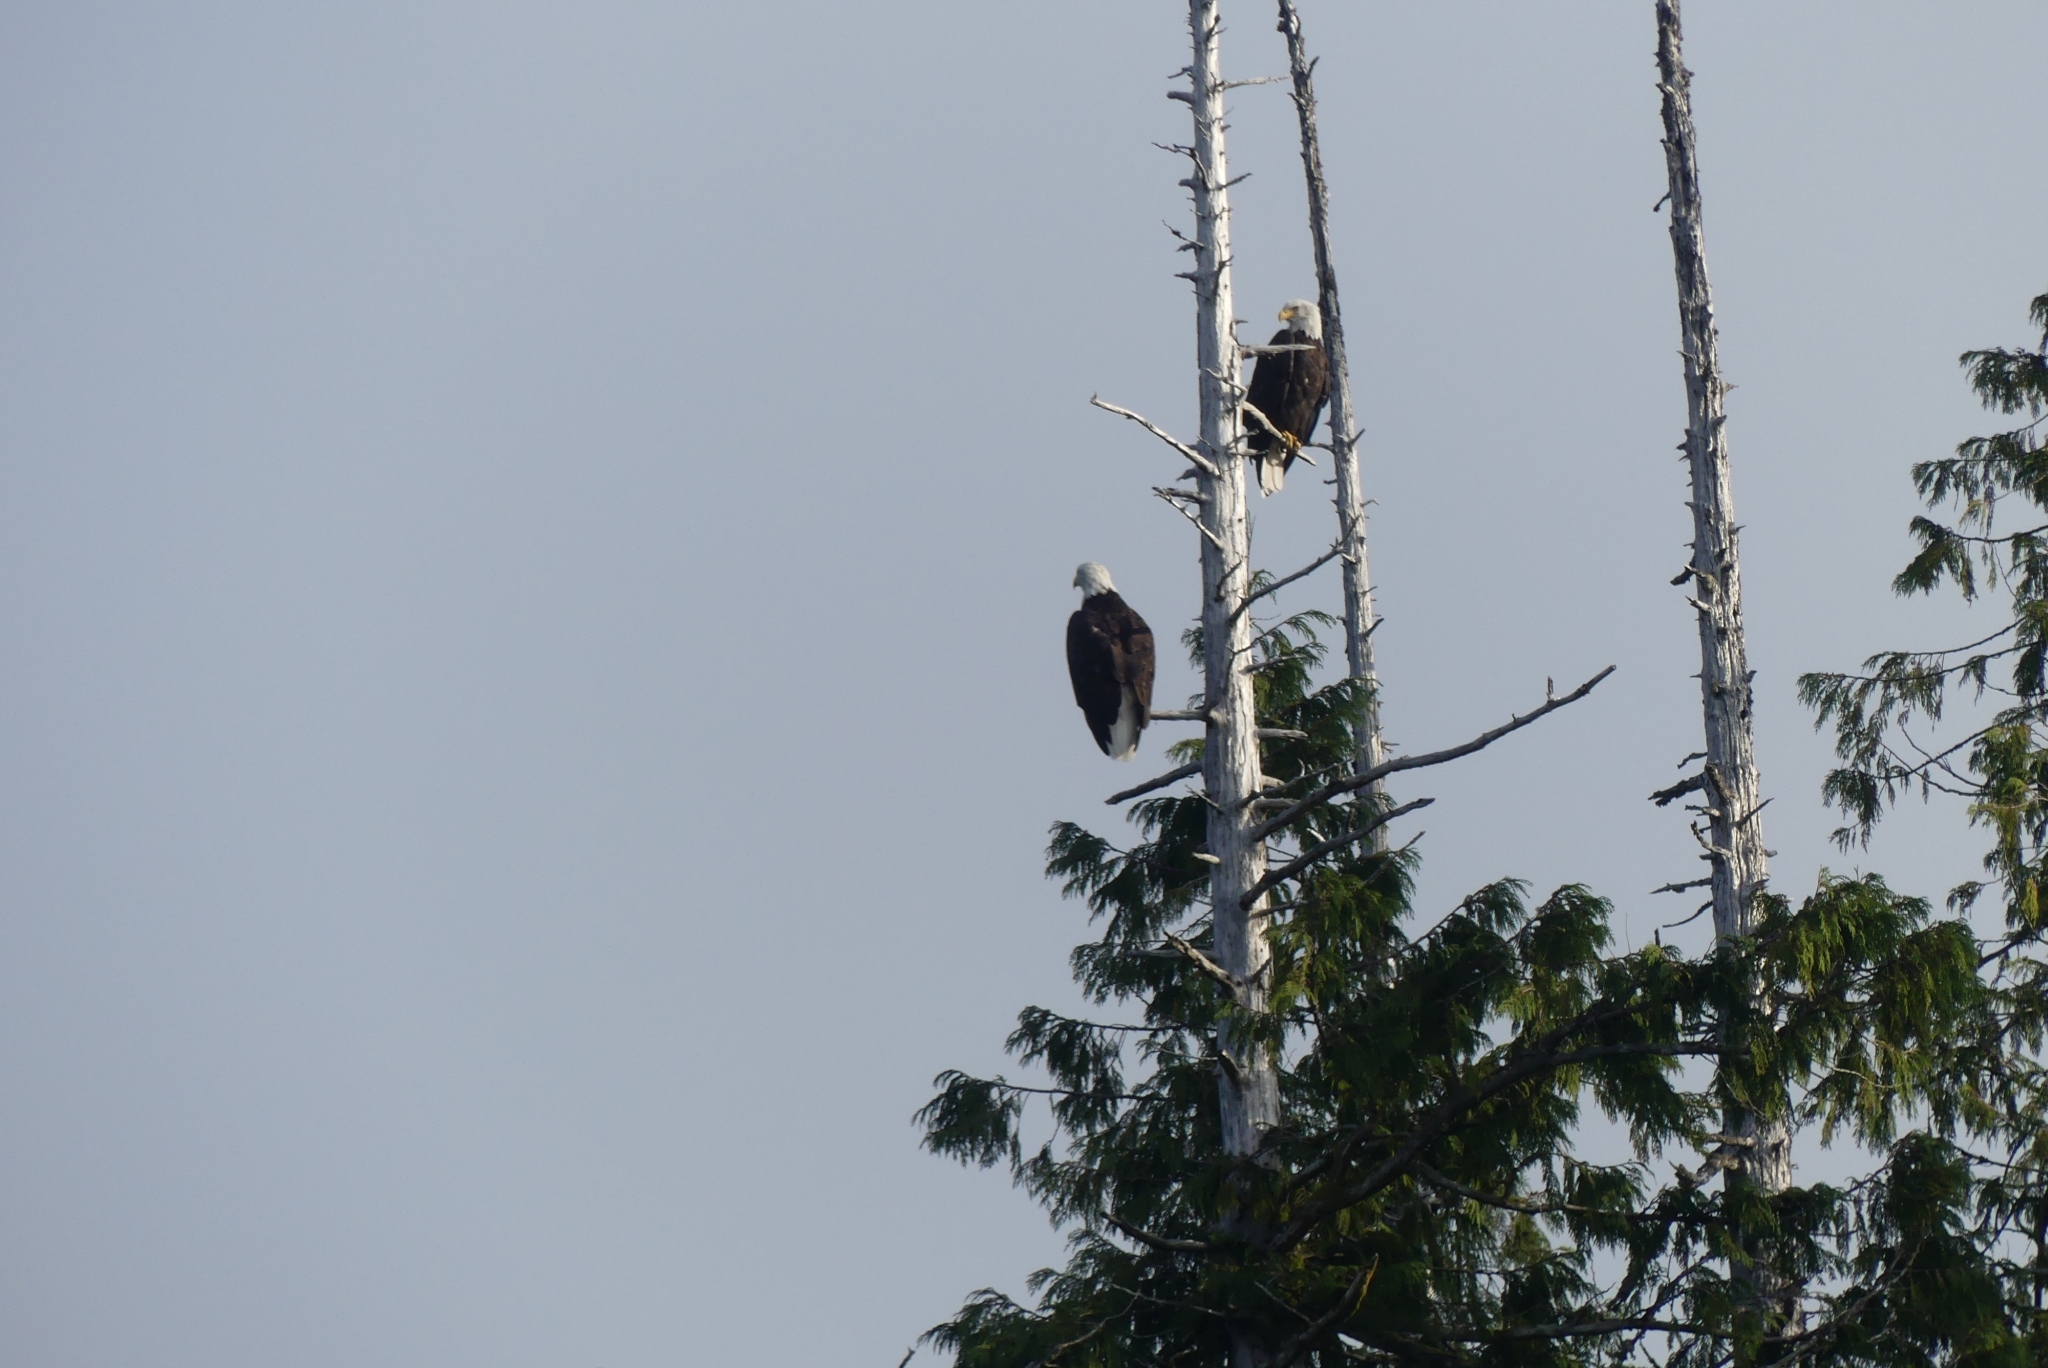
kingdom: Animalia
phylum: Chordata
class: Aves
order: Accipitriformes
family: Accipitridae
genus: Haliaeetus
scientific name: Haliaeetus leucocephalus
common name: Bald eagle
